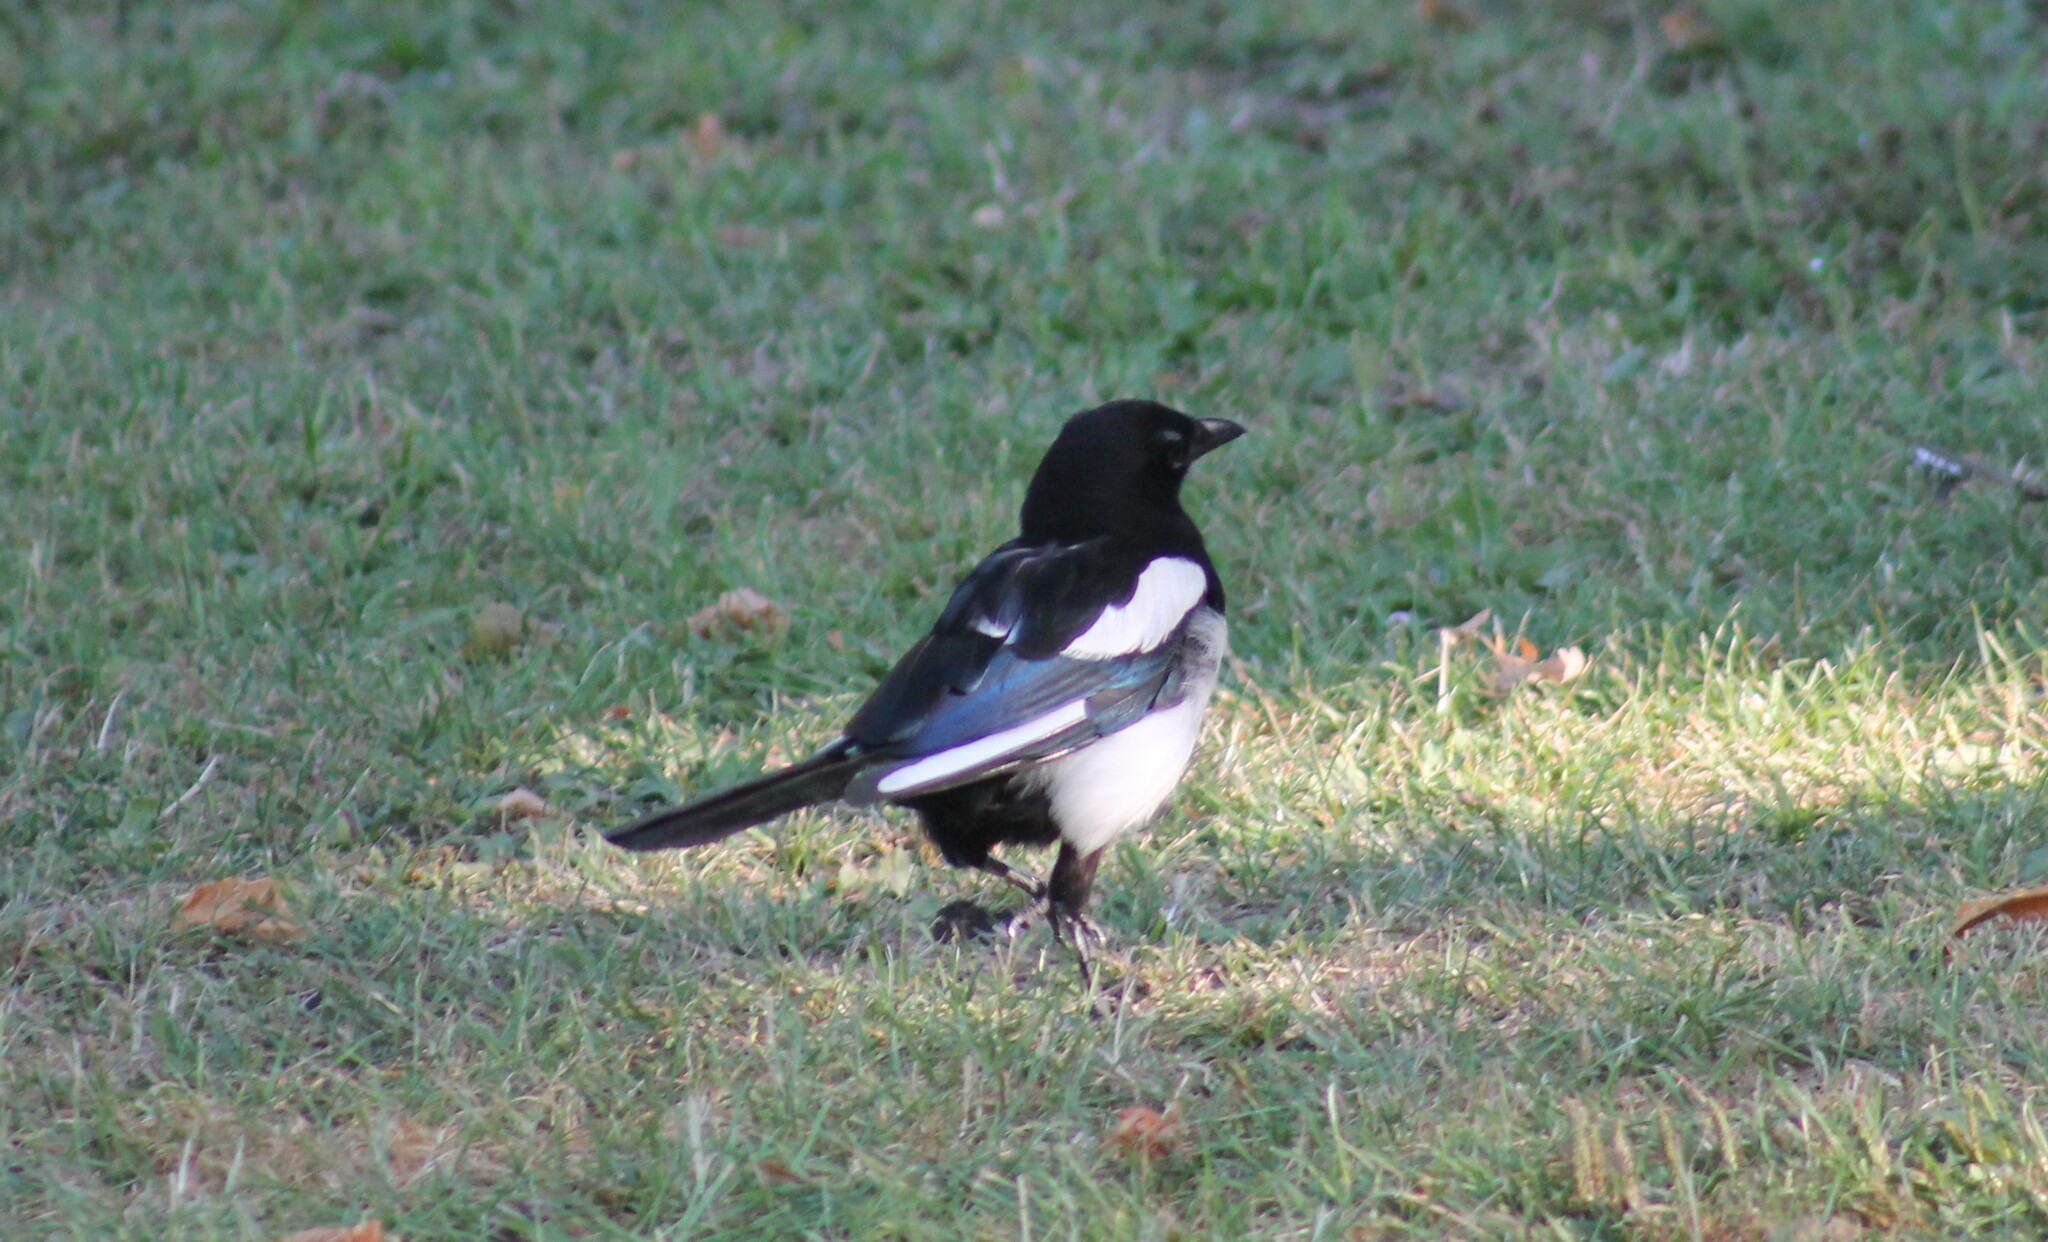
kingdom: Animalia
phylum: Chordata
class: Aves
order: Passeriformes
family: Corvidae
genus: Pica
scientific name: Pica pica
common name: Eurasian magpie
